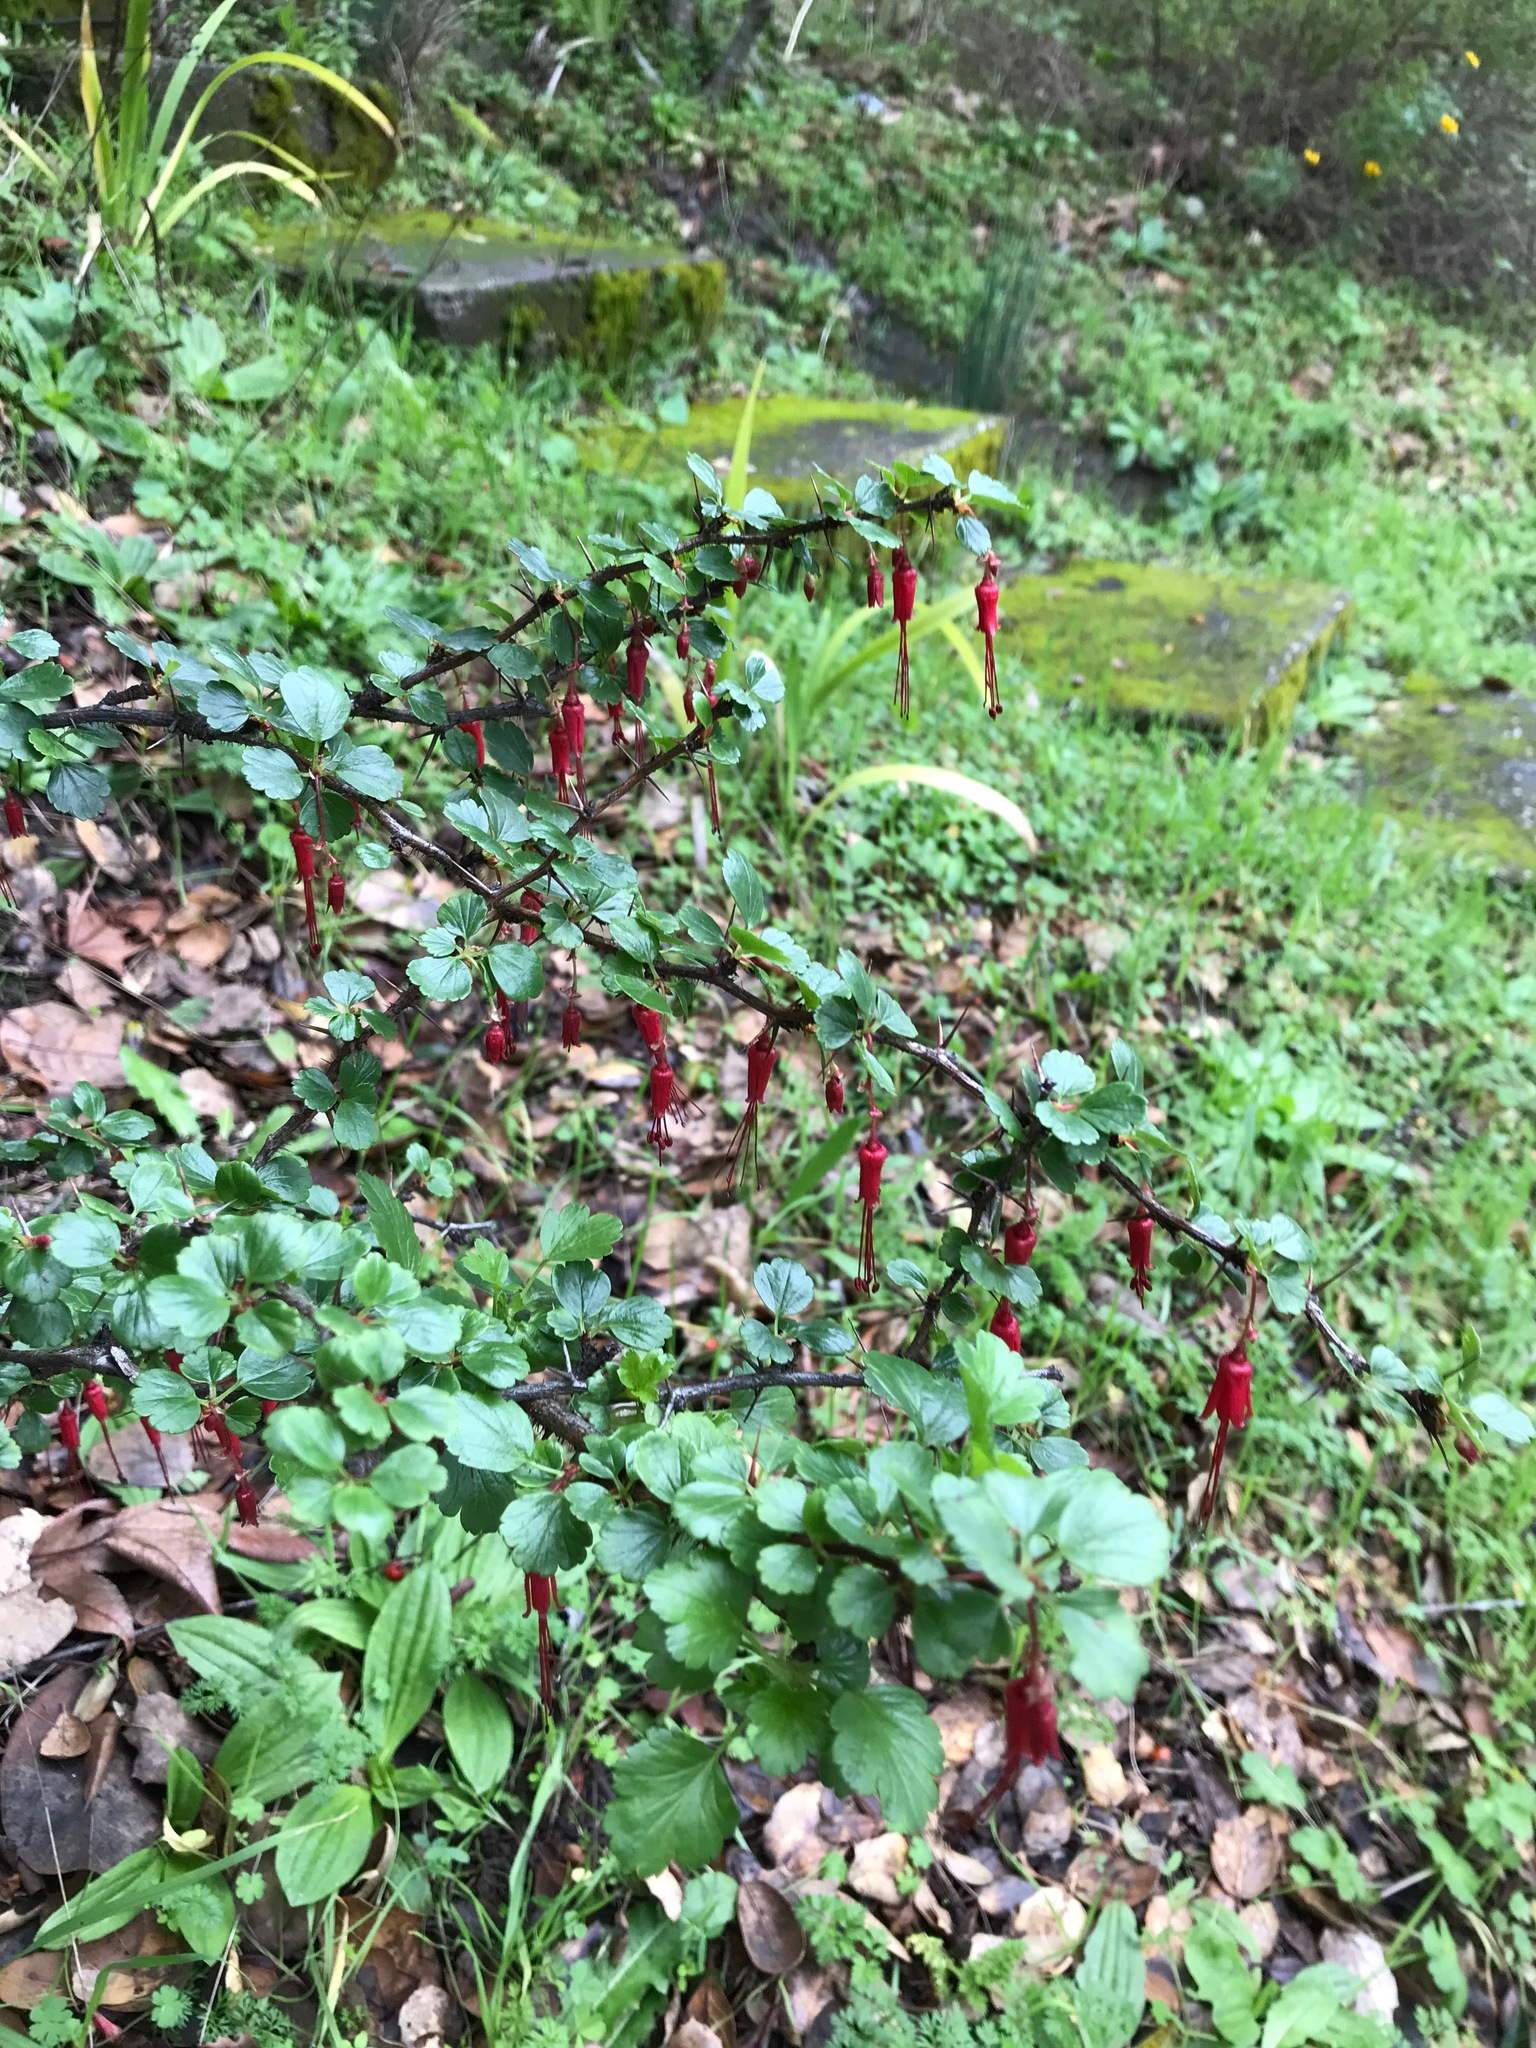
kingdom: Plantae
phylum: Tracheophyta
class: Magnoliopsida
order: Saxifragales
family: Grossulariaceae
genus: Ribes
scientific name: Ribes speciosum
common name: Fuchsia-flower gooseberry
